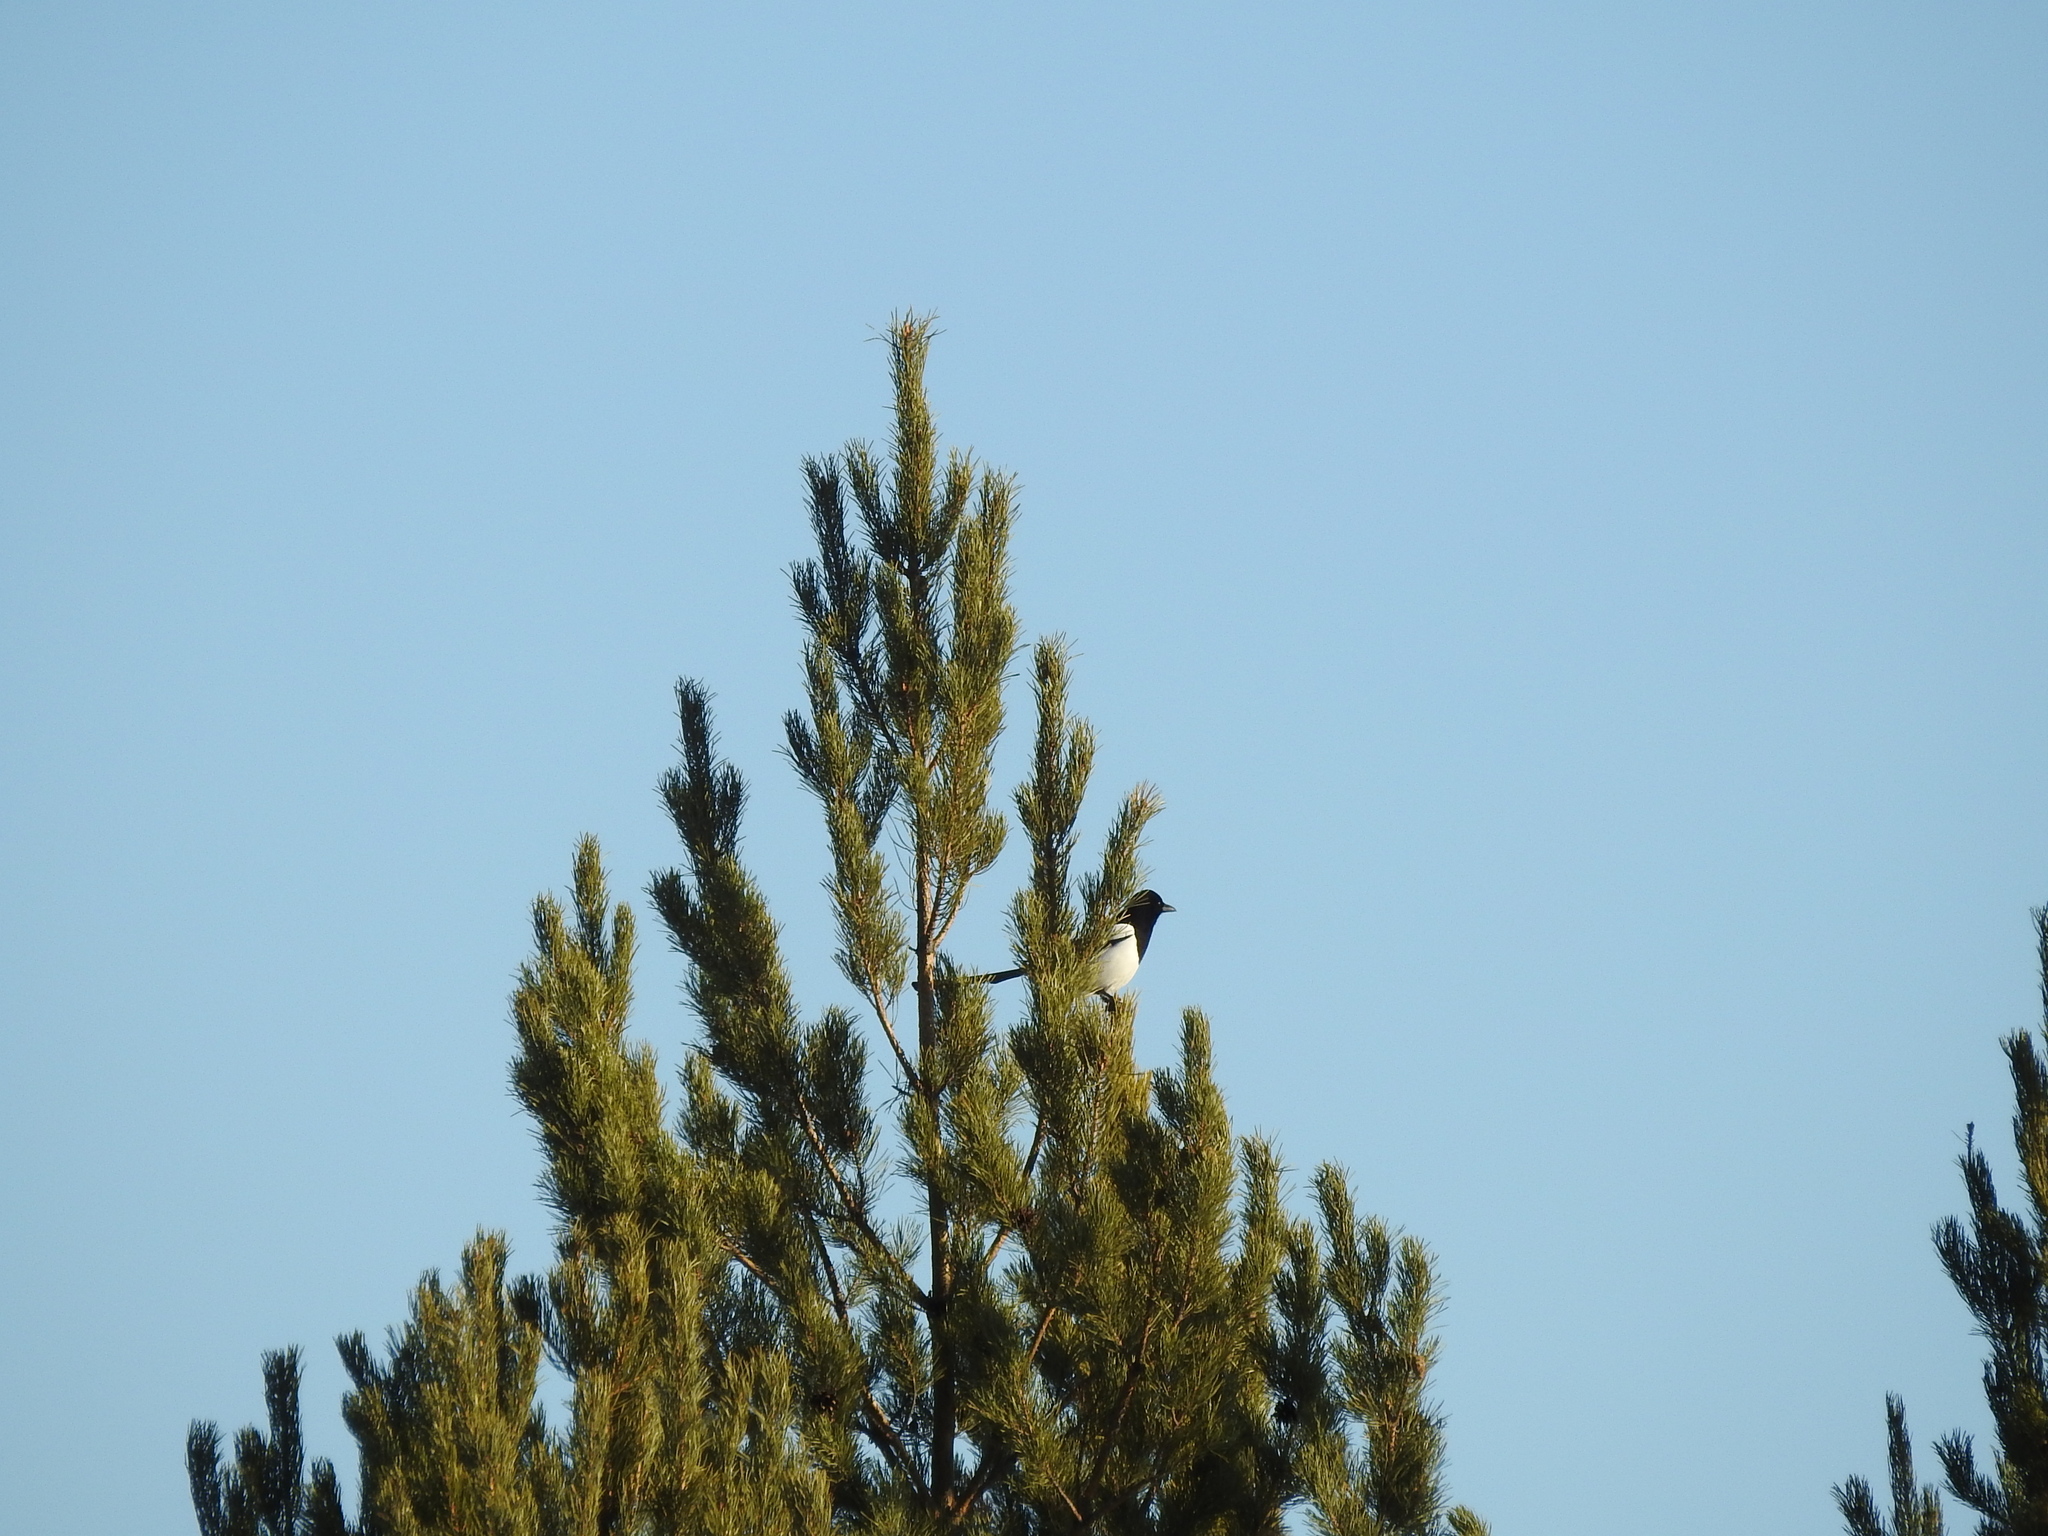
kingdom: Animalia
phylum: Chordata
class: Aves
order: Passeriformes
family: Corvidae
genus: Pica
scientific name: Pica pica
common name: Eurasian magpie
